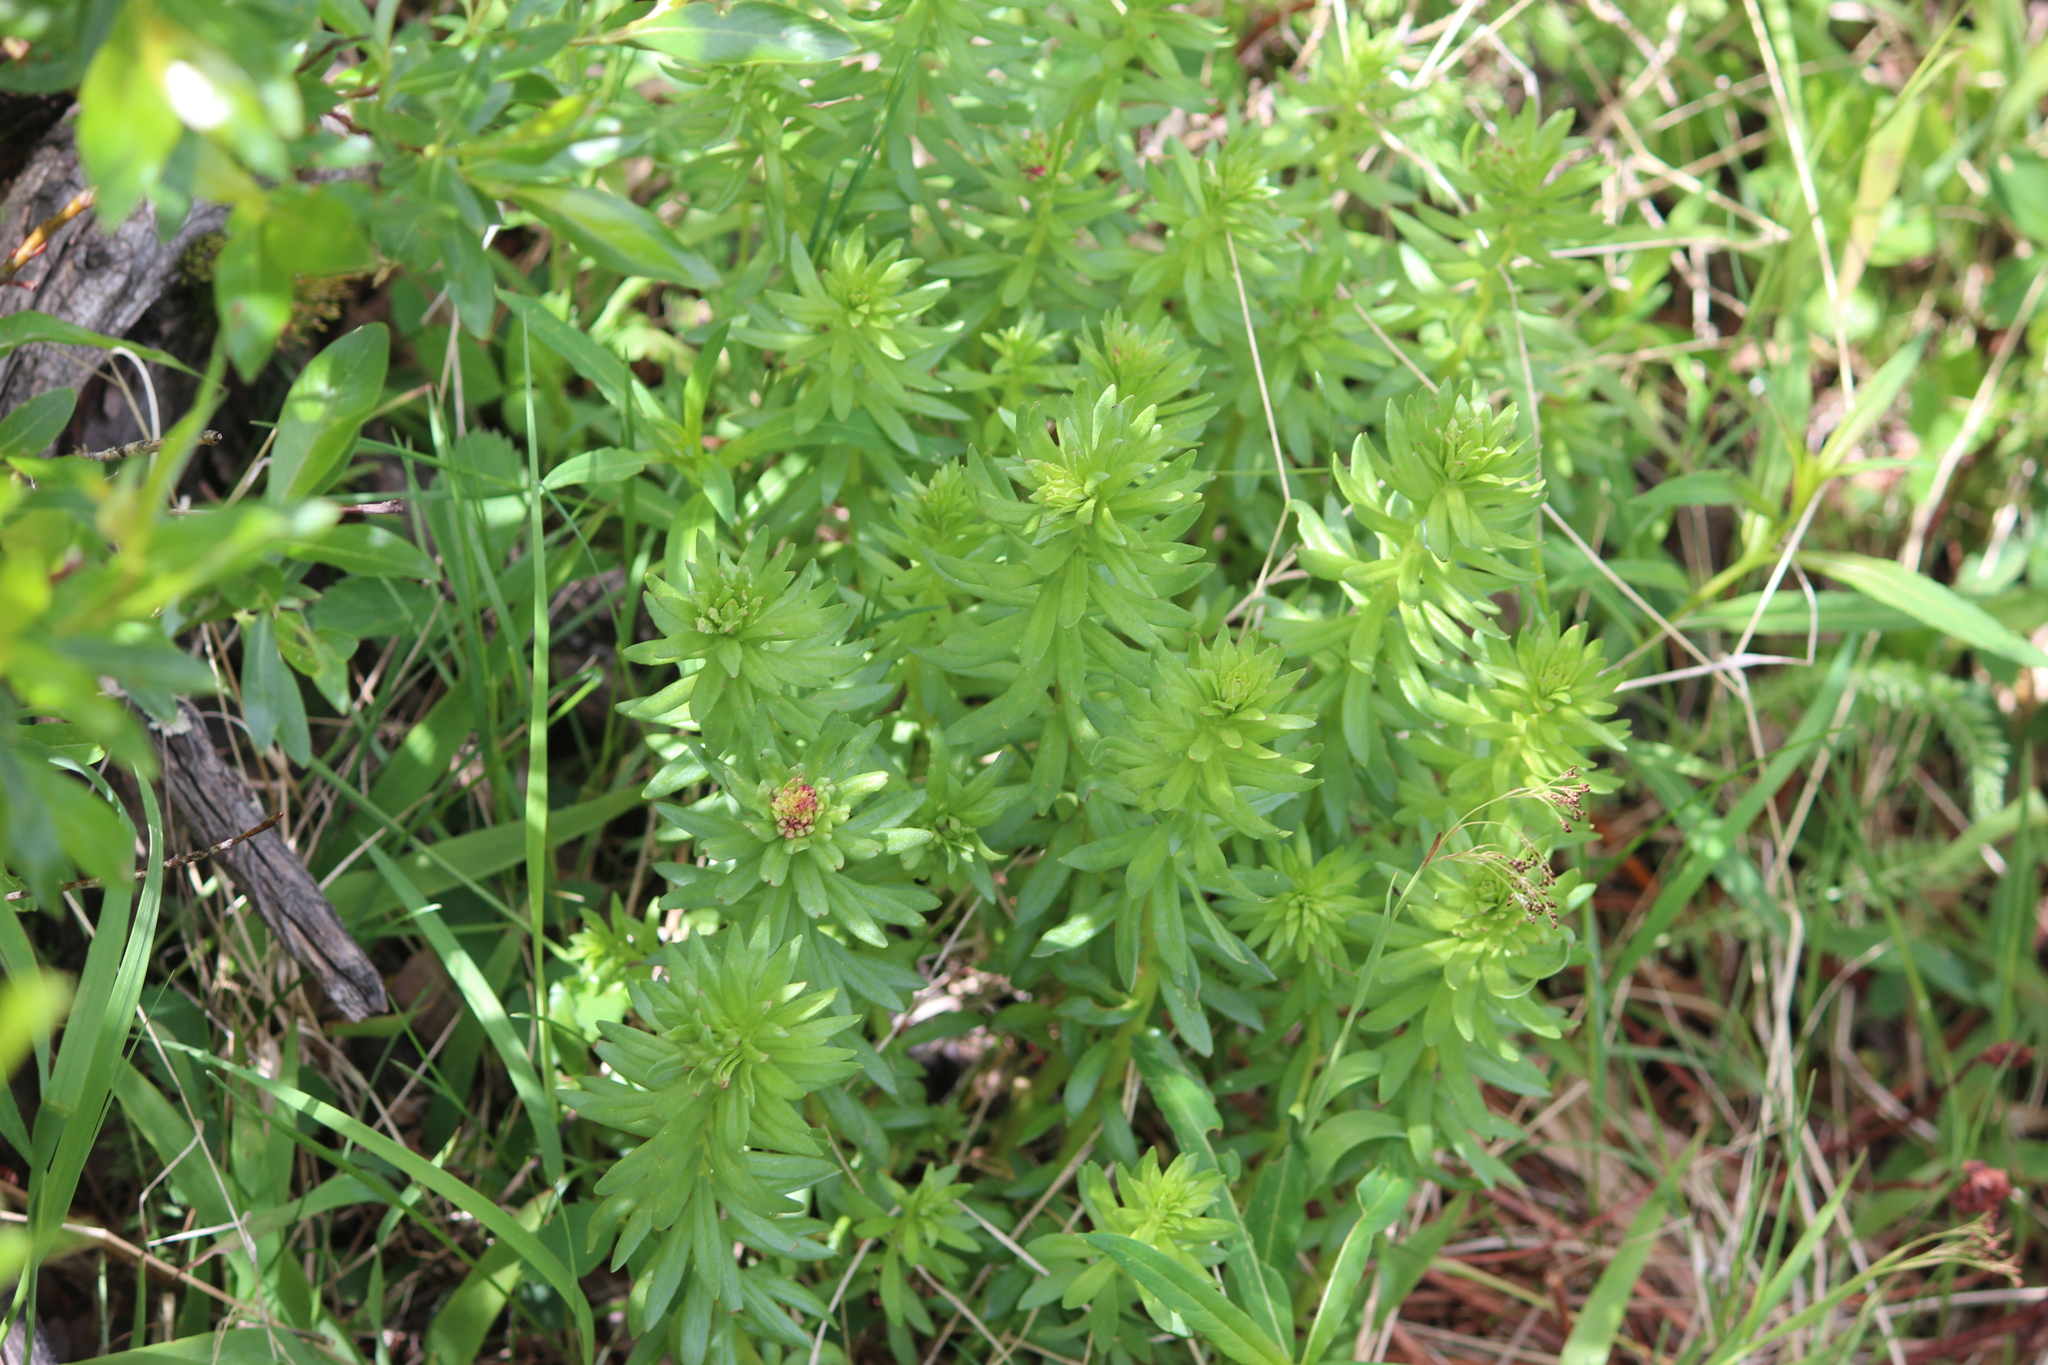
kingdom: Plantae
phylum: Tracheophyta
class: Magnoliopsida
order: Saxifragales
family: Crassulaceae
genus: Rhodiola
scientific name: Rhodiola rhodantha
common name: Red orpine
